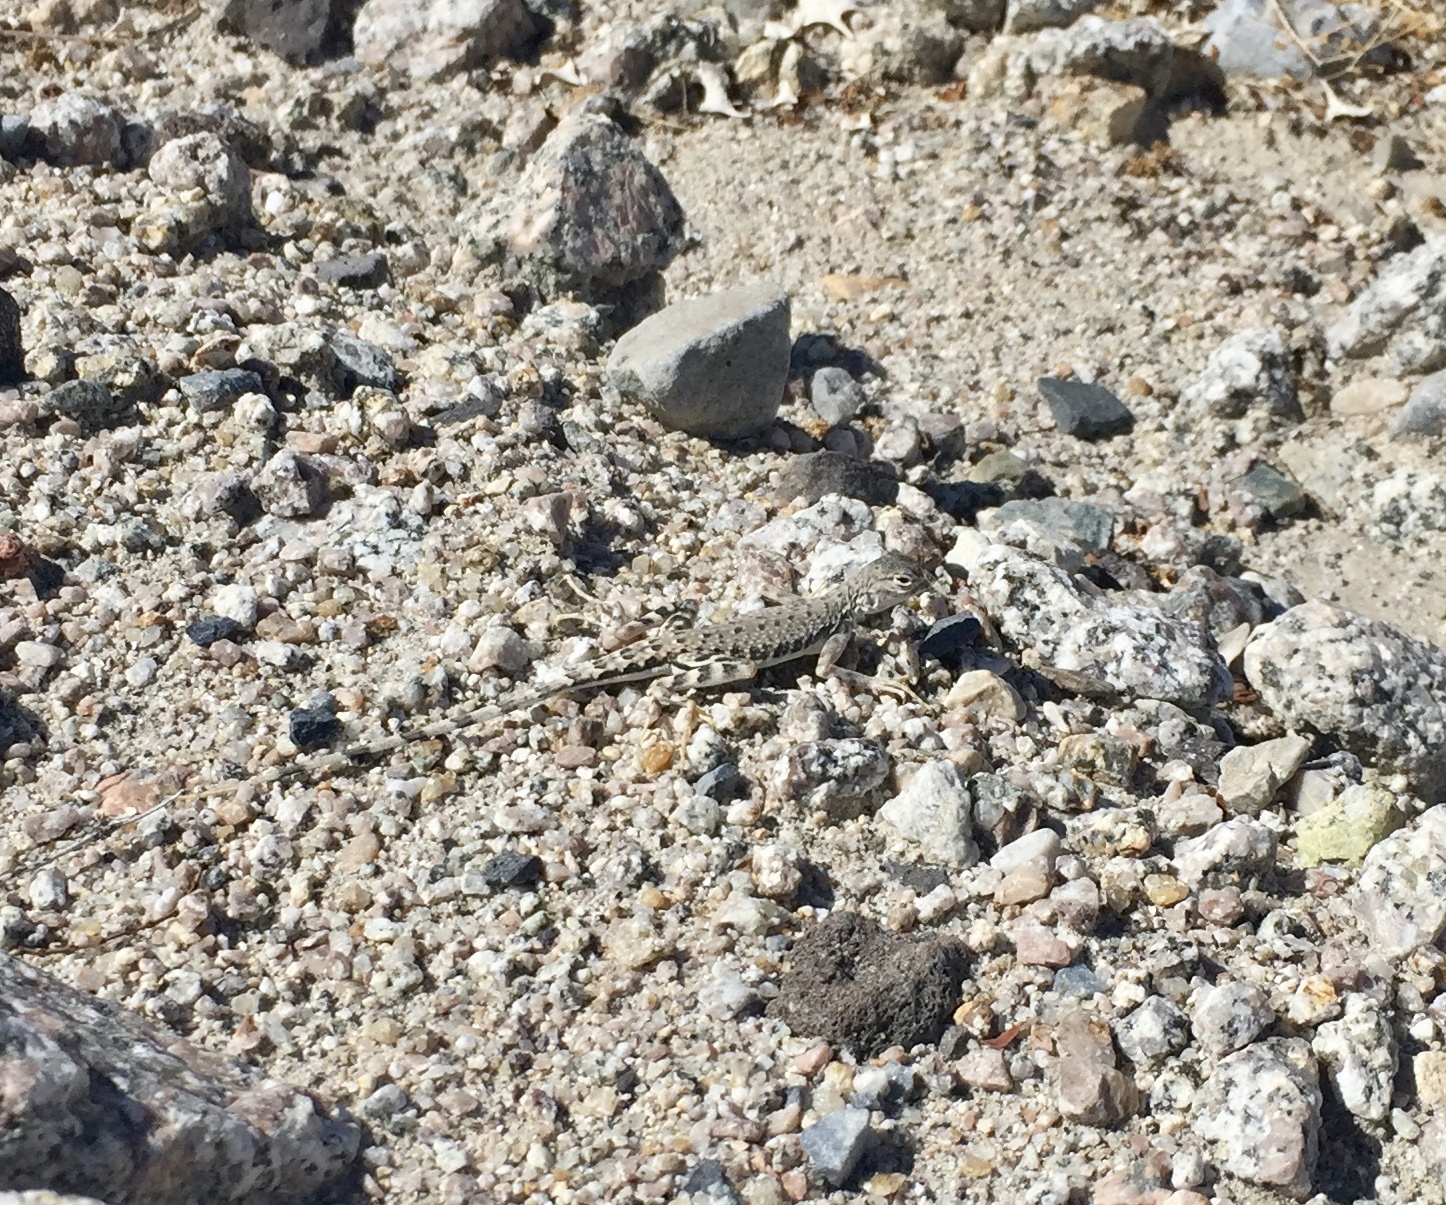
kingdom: Animalia
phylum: Chordata
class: Squamata
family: Phrynosomatidae
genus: Callisaurus
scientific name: Callisaurus draconoides
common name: Zebra-tailed lizard
